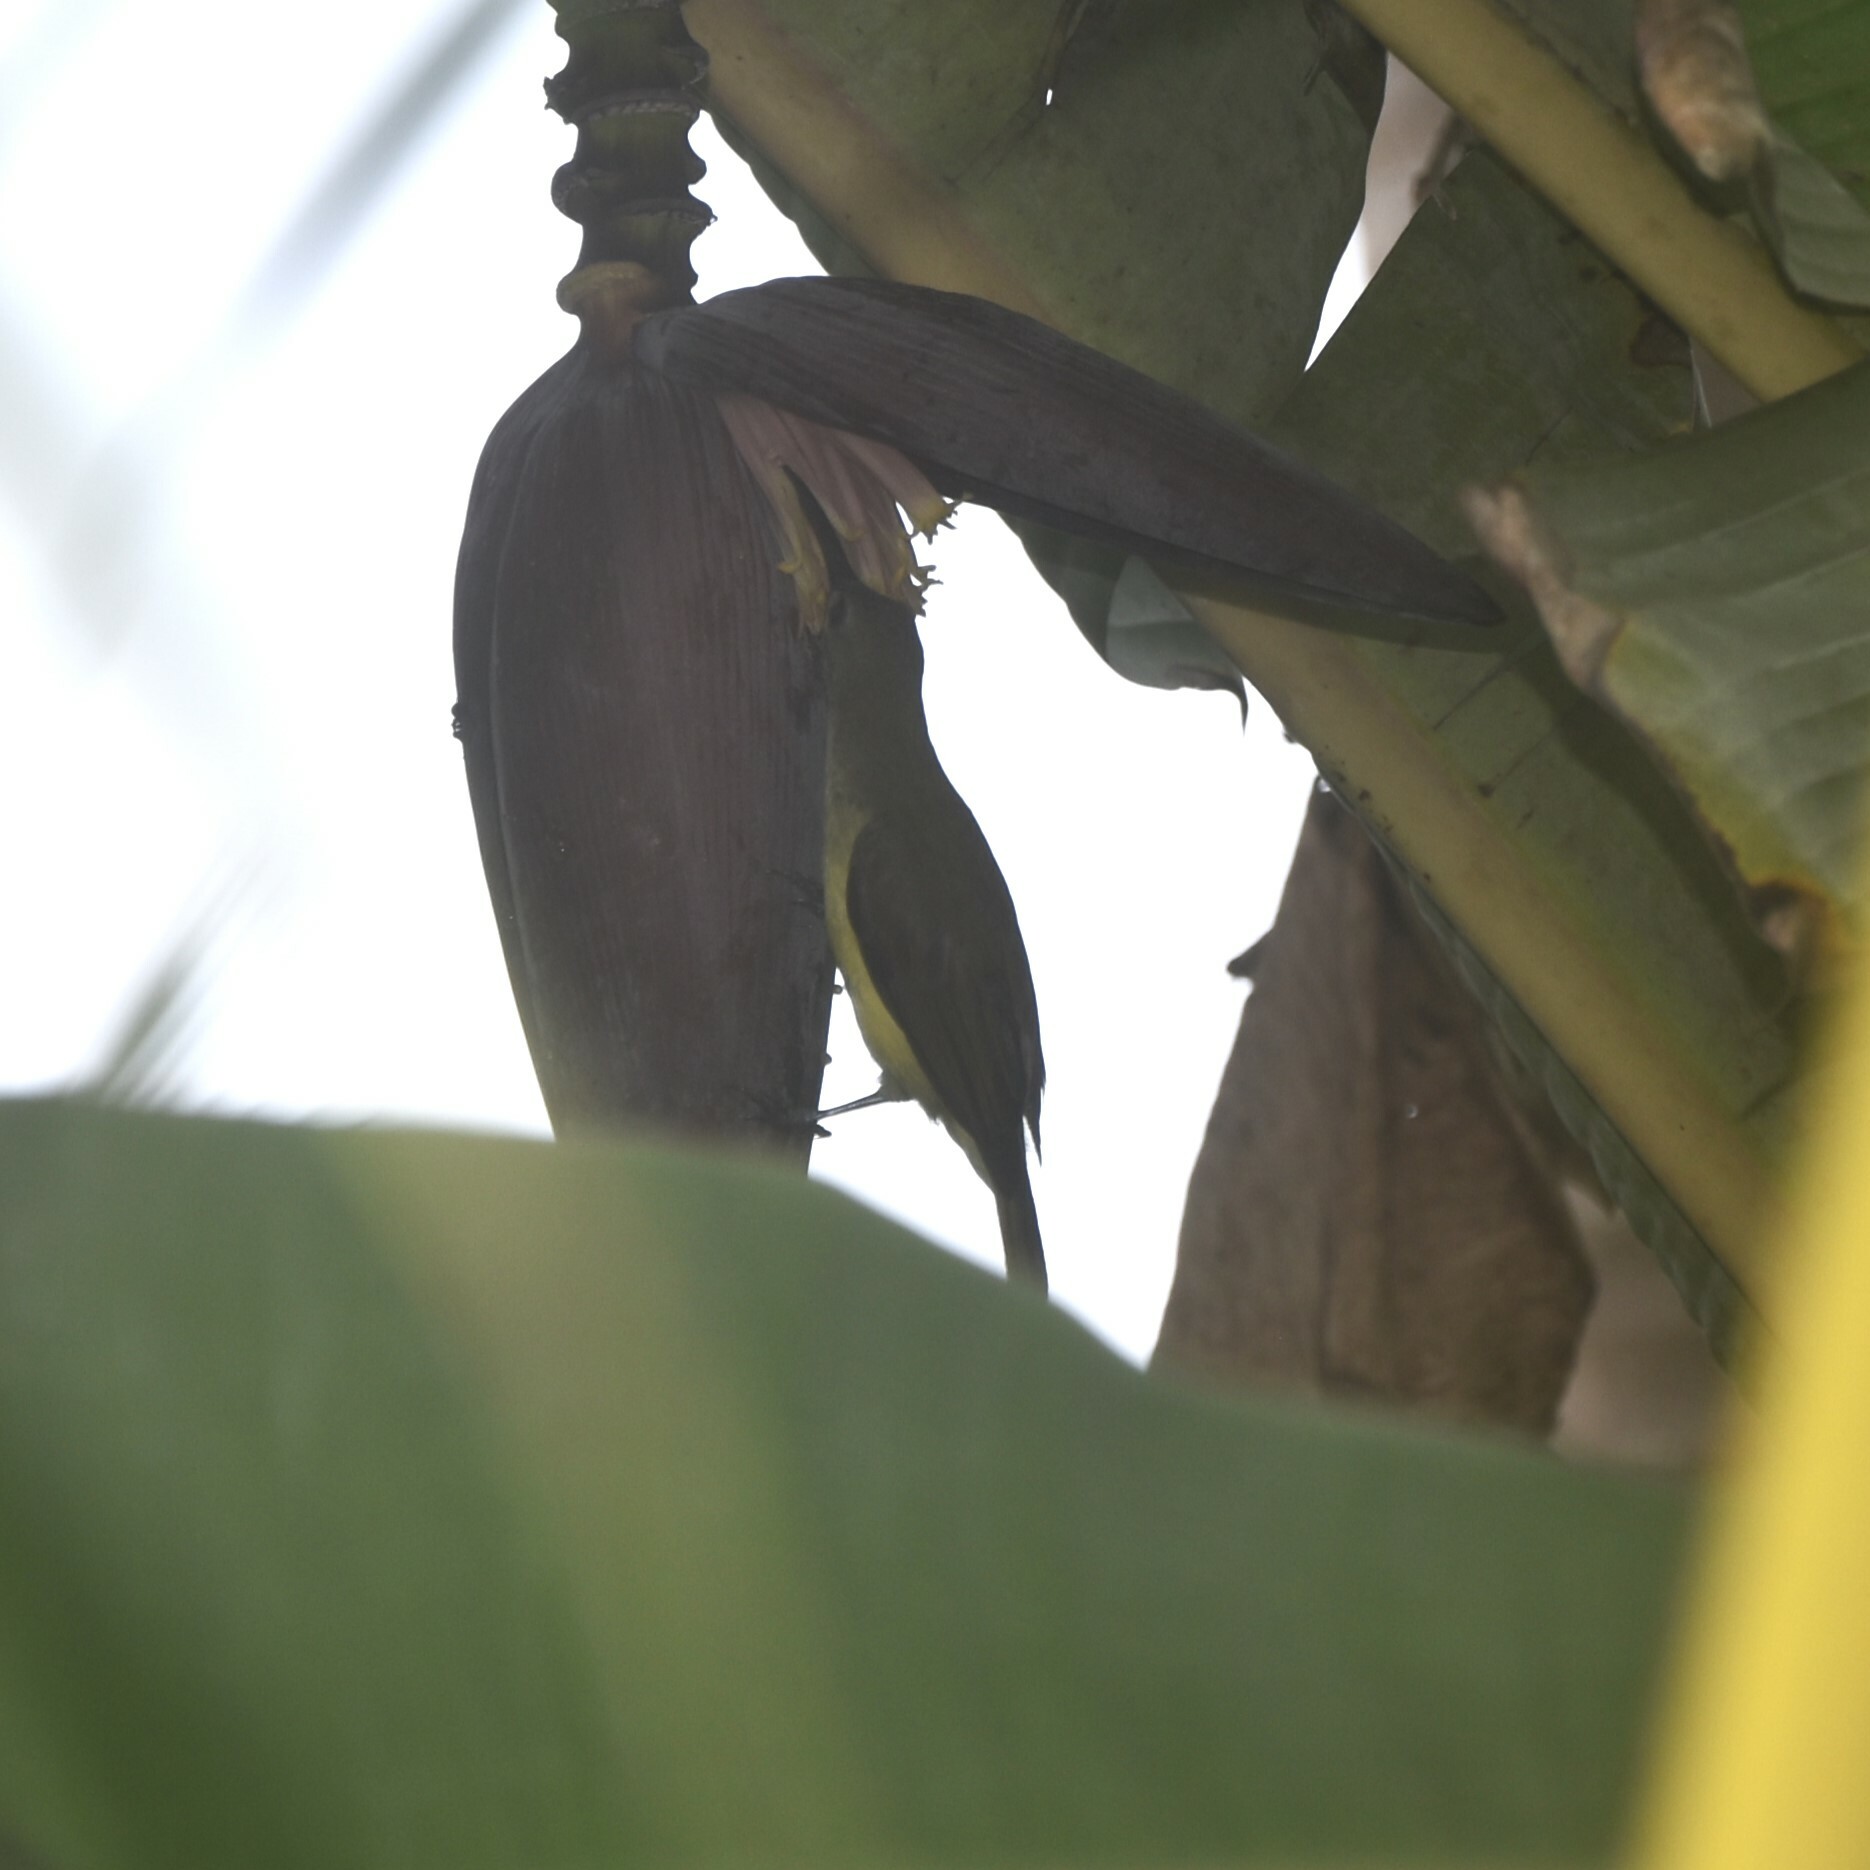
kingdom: Animalia
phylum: Chordata
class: Aves
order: Passeriformes
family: Nectariniidae
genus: Arachnothera
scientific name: Arachnothera longirostra
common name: Little spiderhunter
